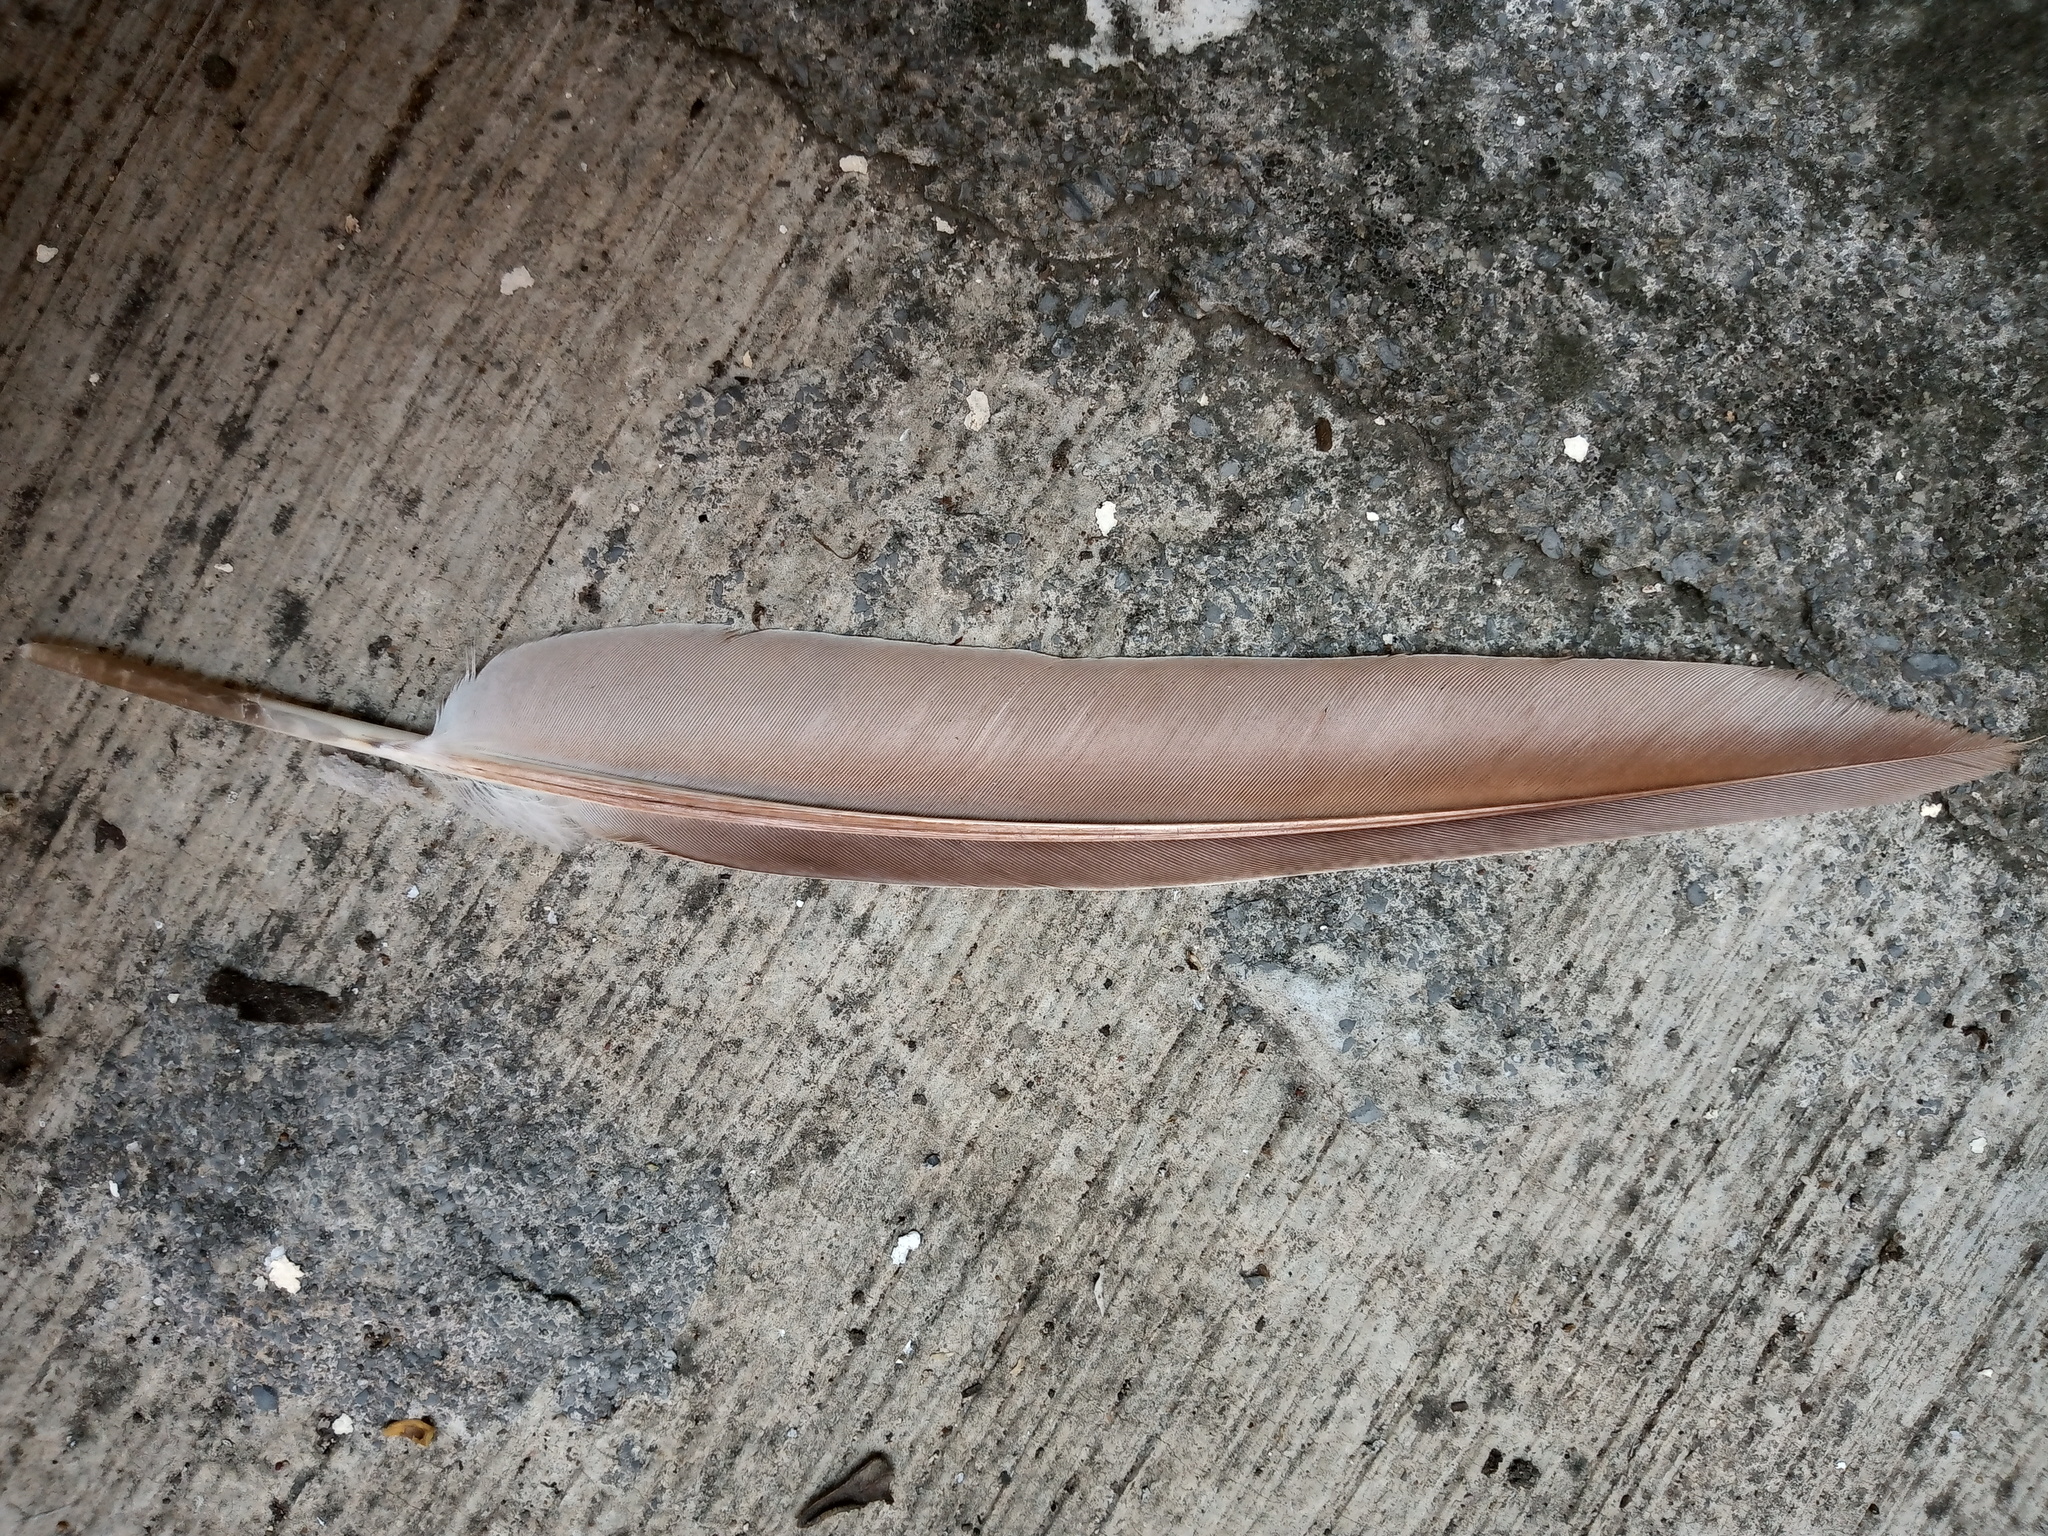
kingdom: Animalia
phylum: Chordata
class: Aves
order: Columbiformes
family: Columbidae
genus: Columba
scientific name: Columba livia
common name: Rock pigeon
